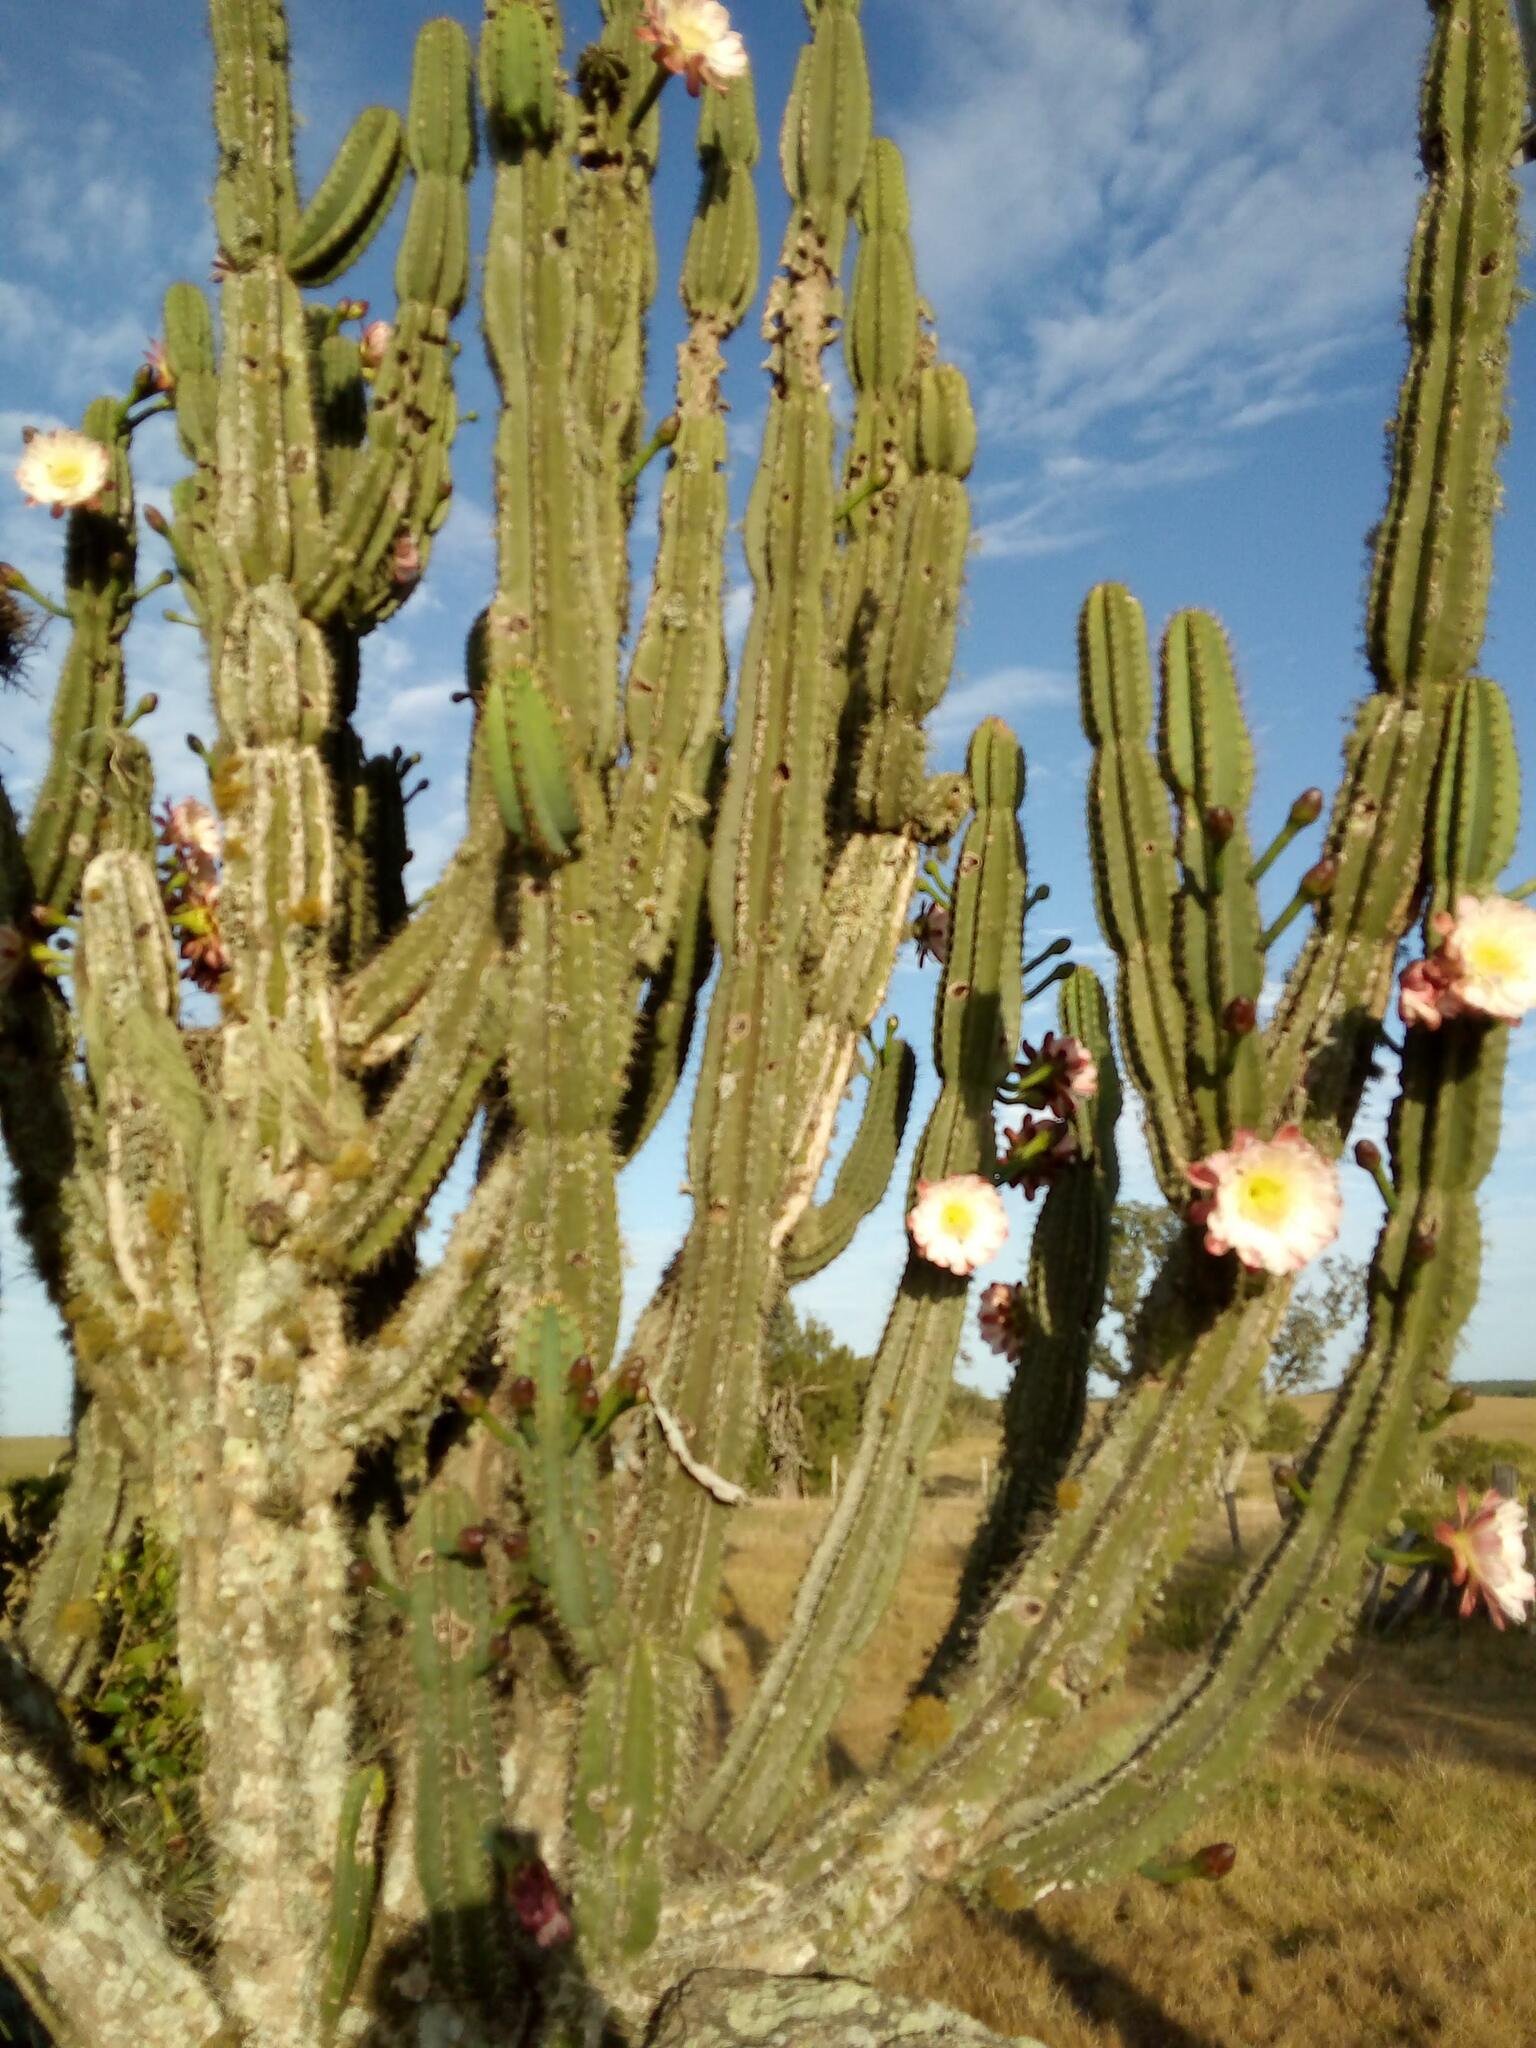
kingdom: Plantae
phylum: Tracheophyta
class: Magnoliopsida
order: Caryophyllales
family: Cactaceae
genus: Cereus
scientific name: Cereus hildmannianus
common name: Hedge cactus
